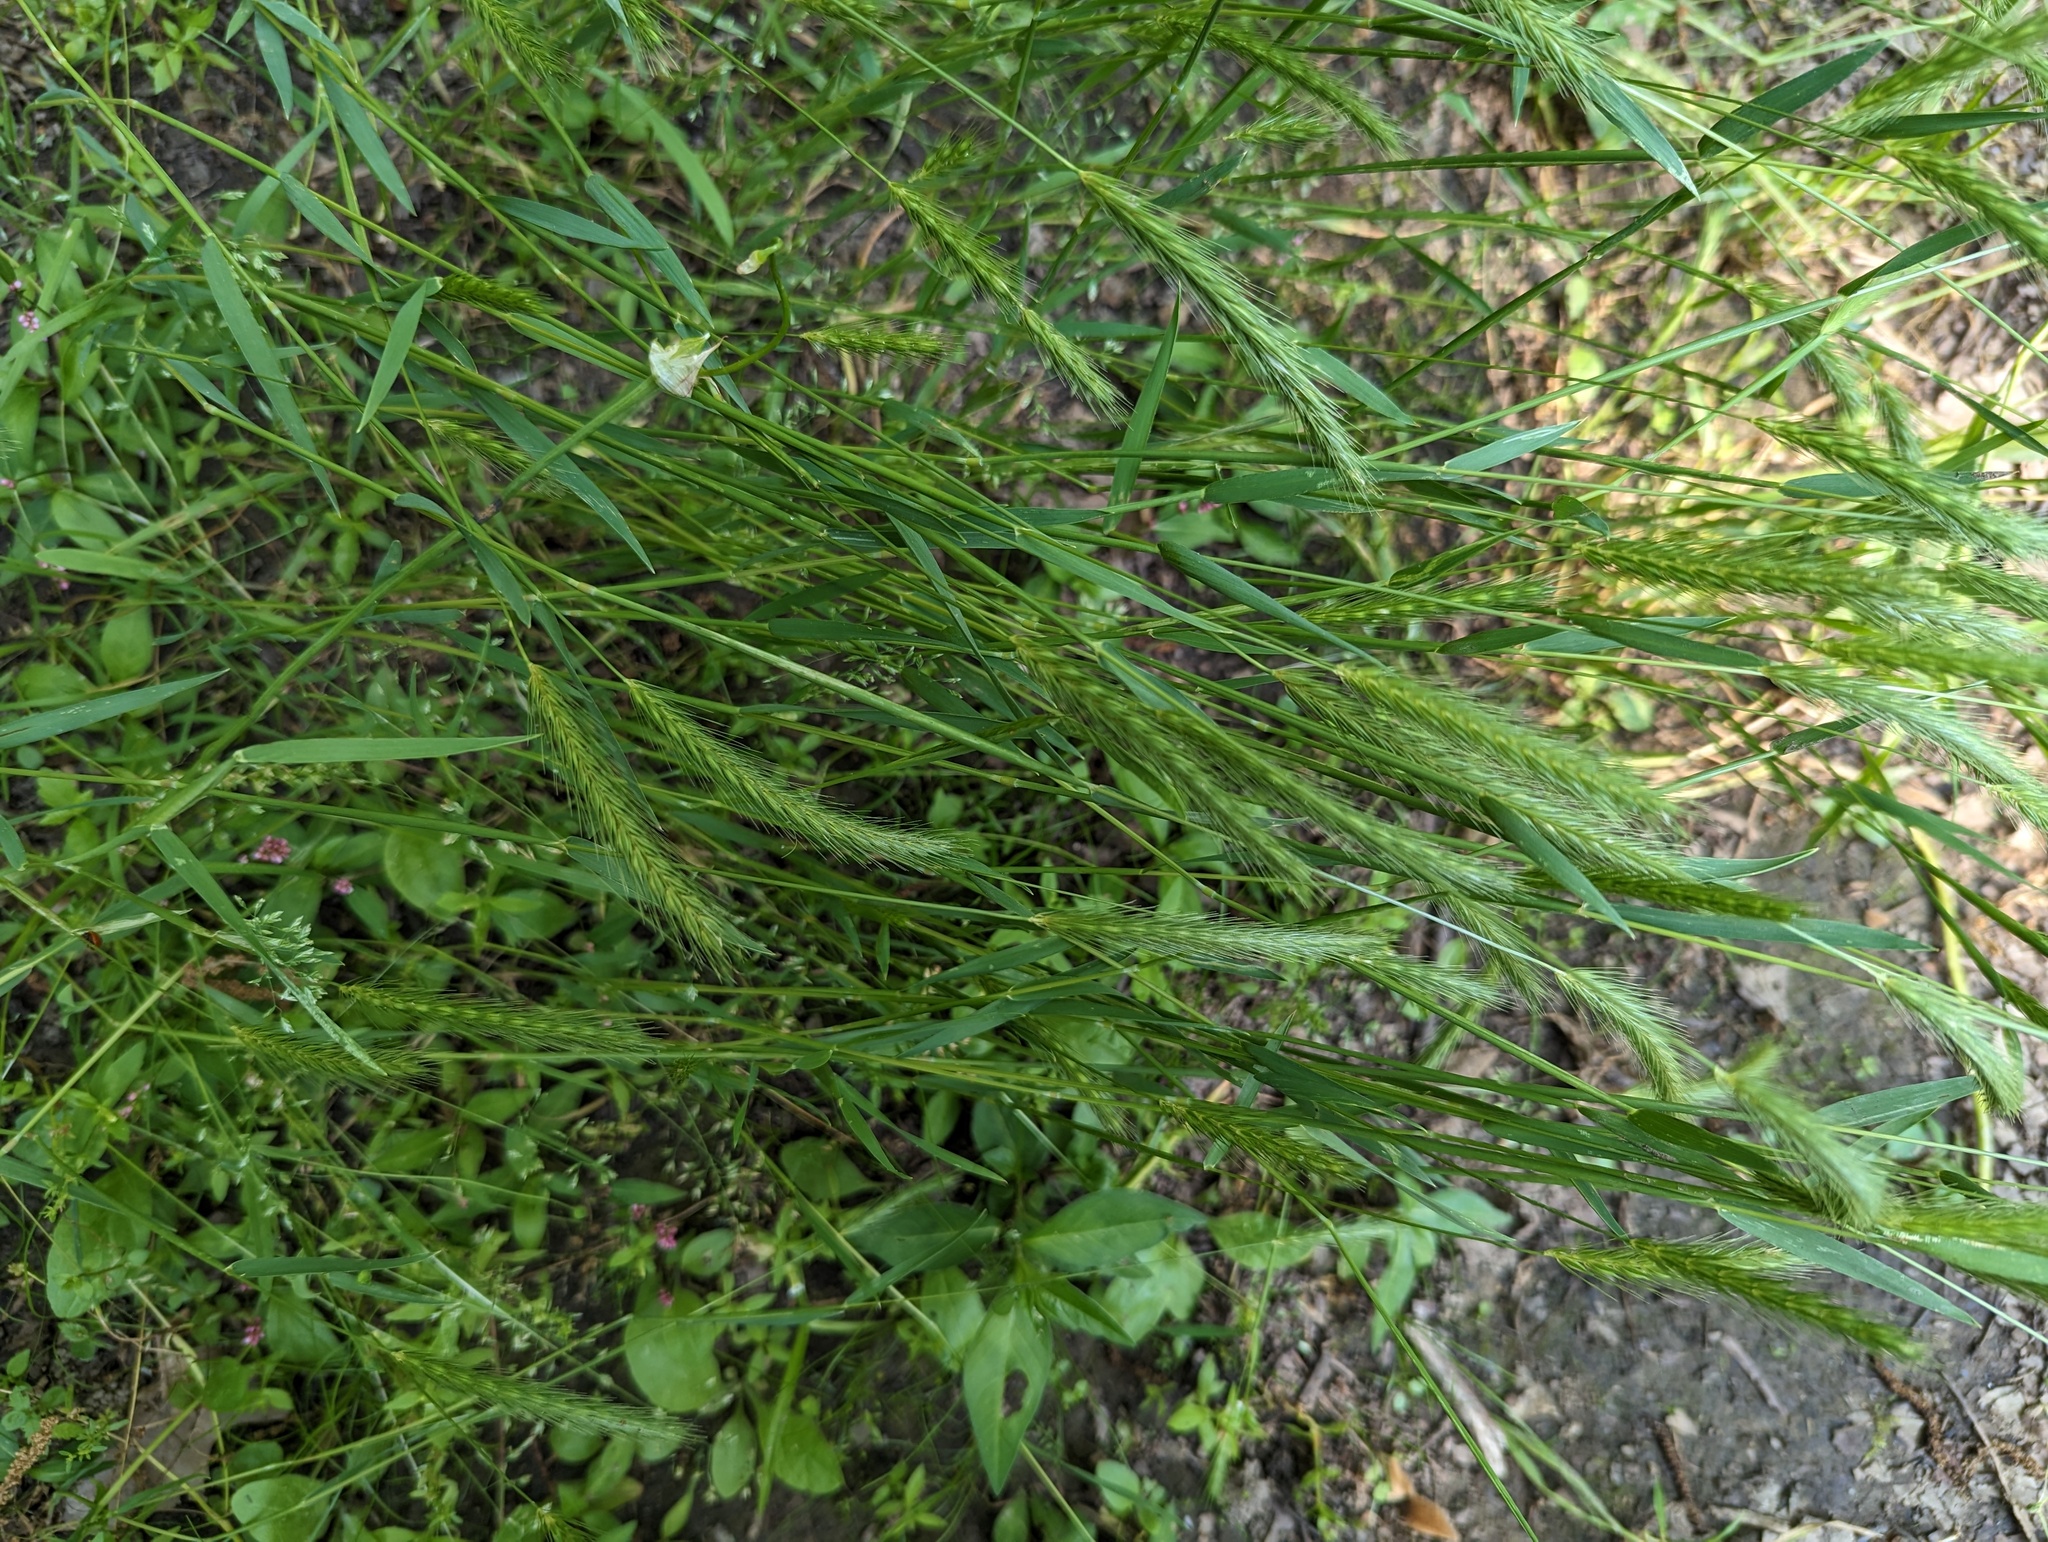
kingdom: Plantae
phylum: Tracheophyta
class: Liliopsida
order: Poales
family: Poaceae
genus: Hordeum
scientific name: Hordeum pusillum
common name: Little barley
